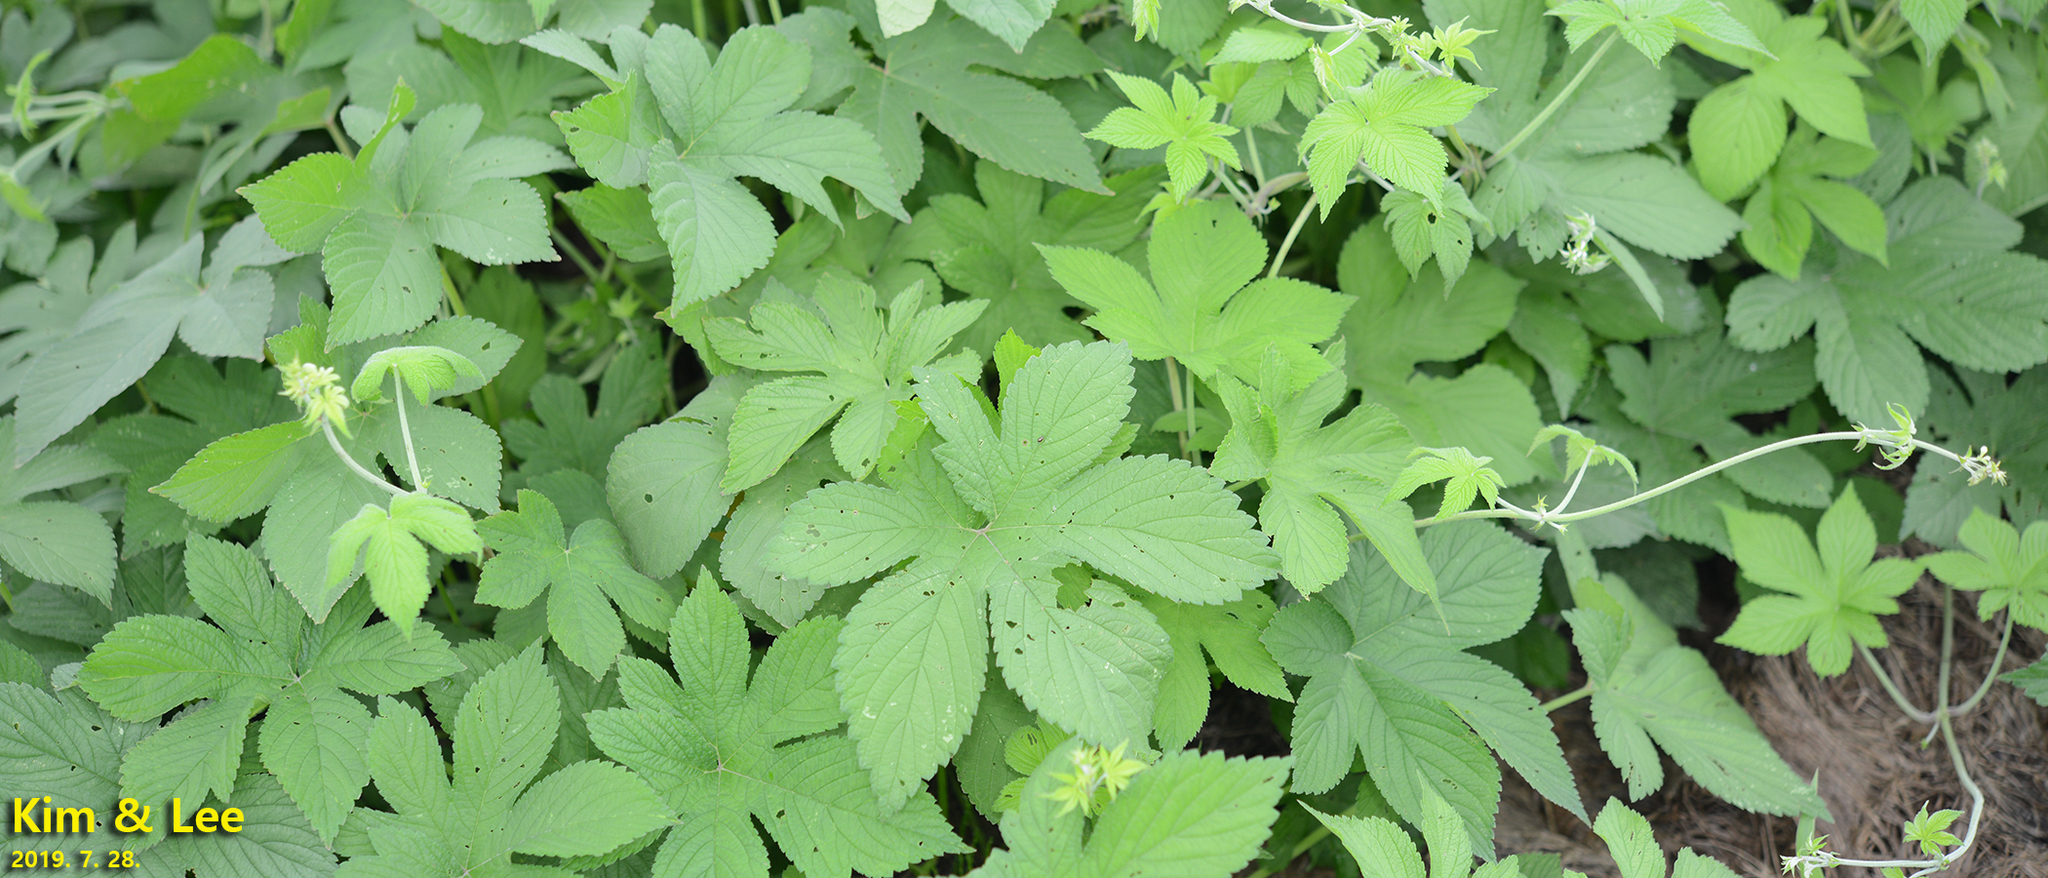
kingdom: Plantae
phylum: Tracheophyta
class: Magnoliopsida
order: Rosales
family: Cannabaceae
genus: Humulus
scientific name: Humulus scandens
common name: Japanese hop
